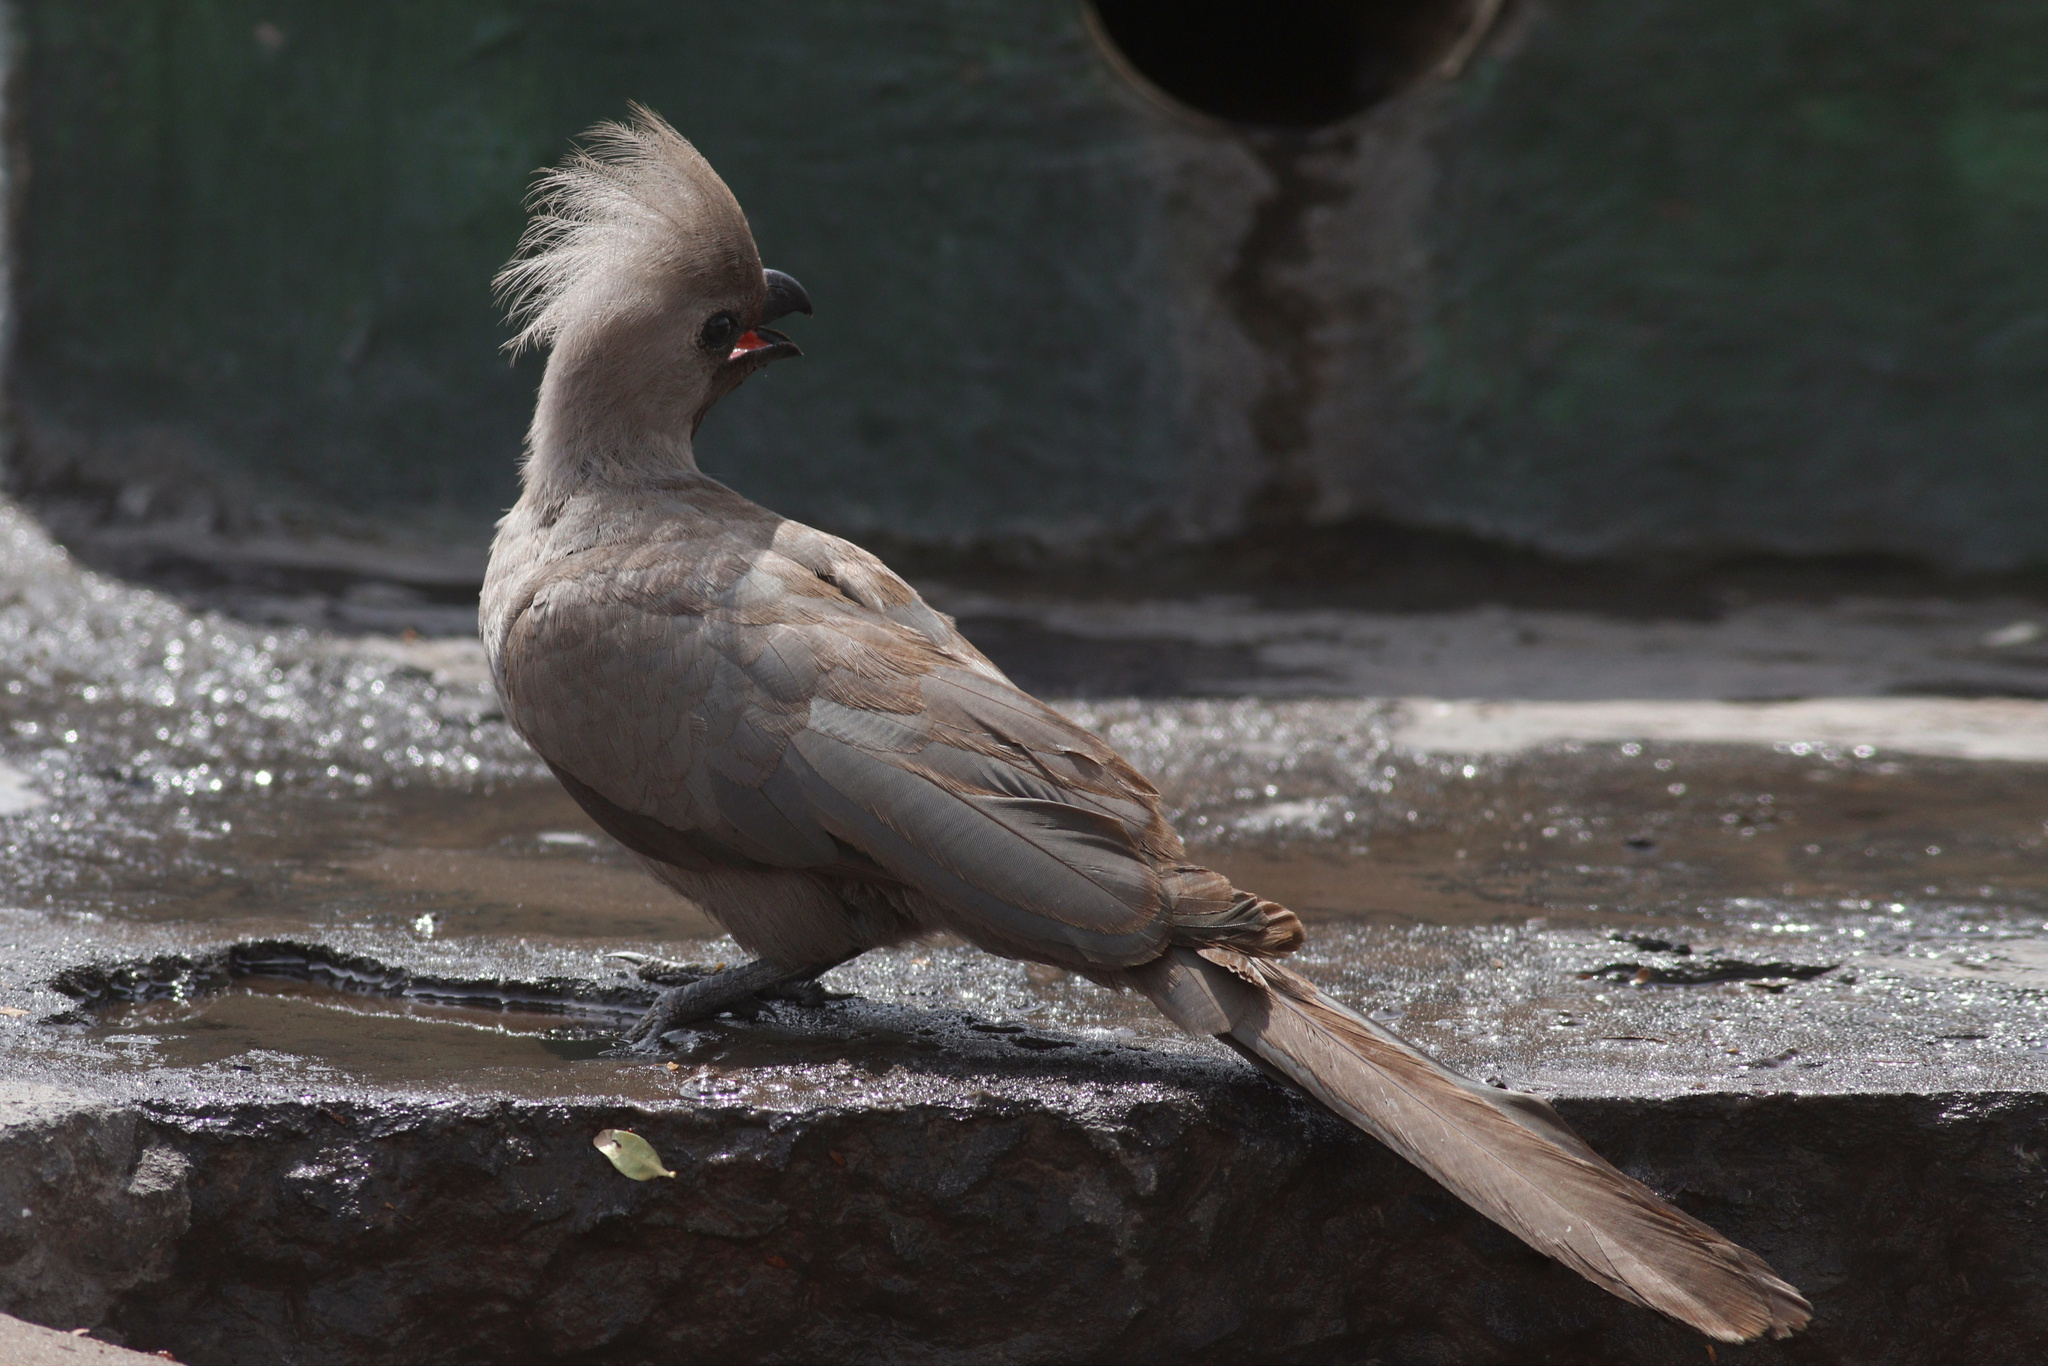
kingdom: Animalia
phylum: Chordata
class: Aves
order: Musophagiformes
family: Musophagidae
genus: Corythaixoides
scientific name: Corythaixoides concolor
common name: Grey go-away-bird
